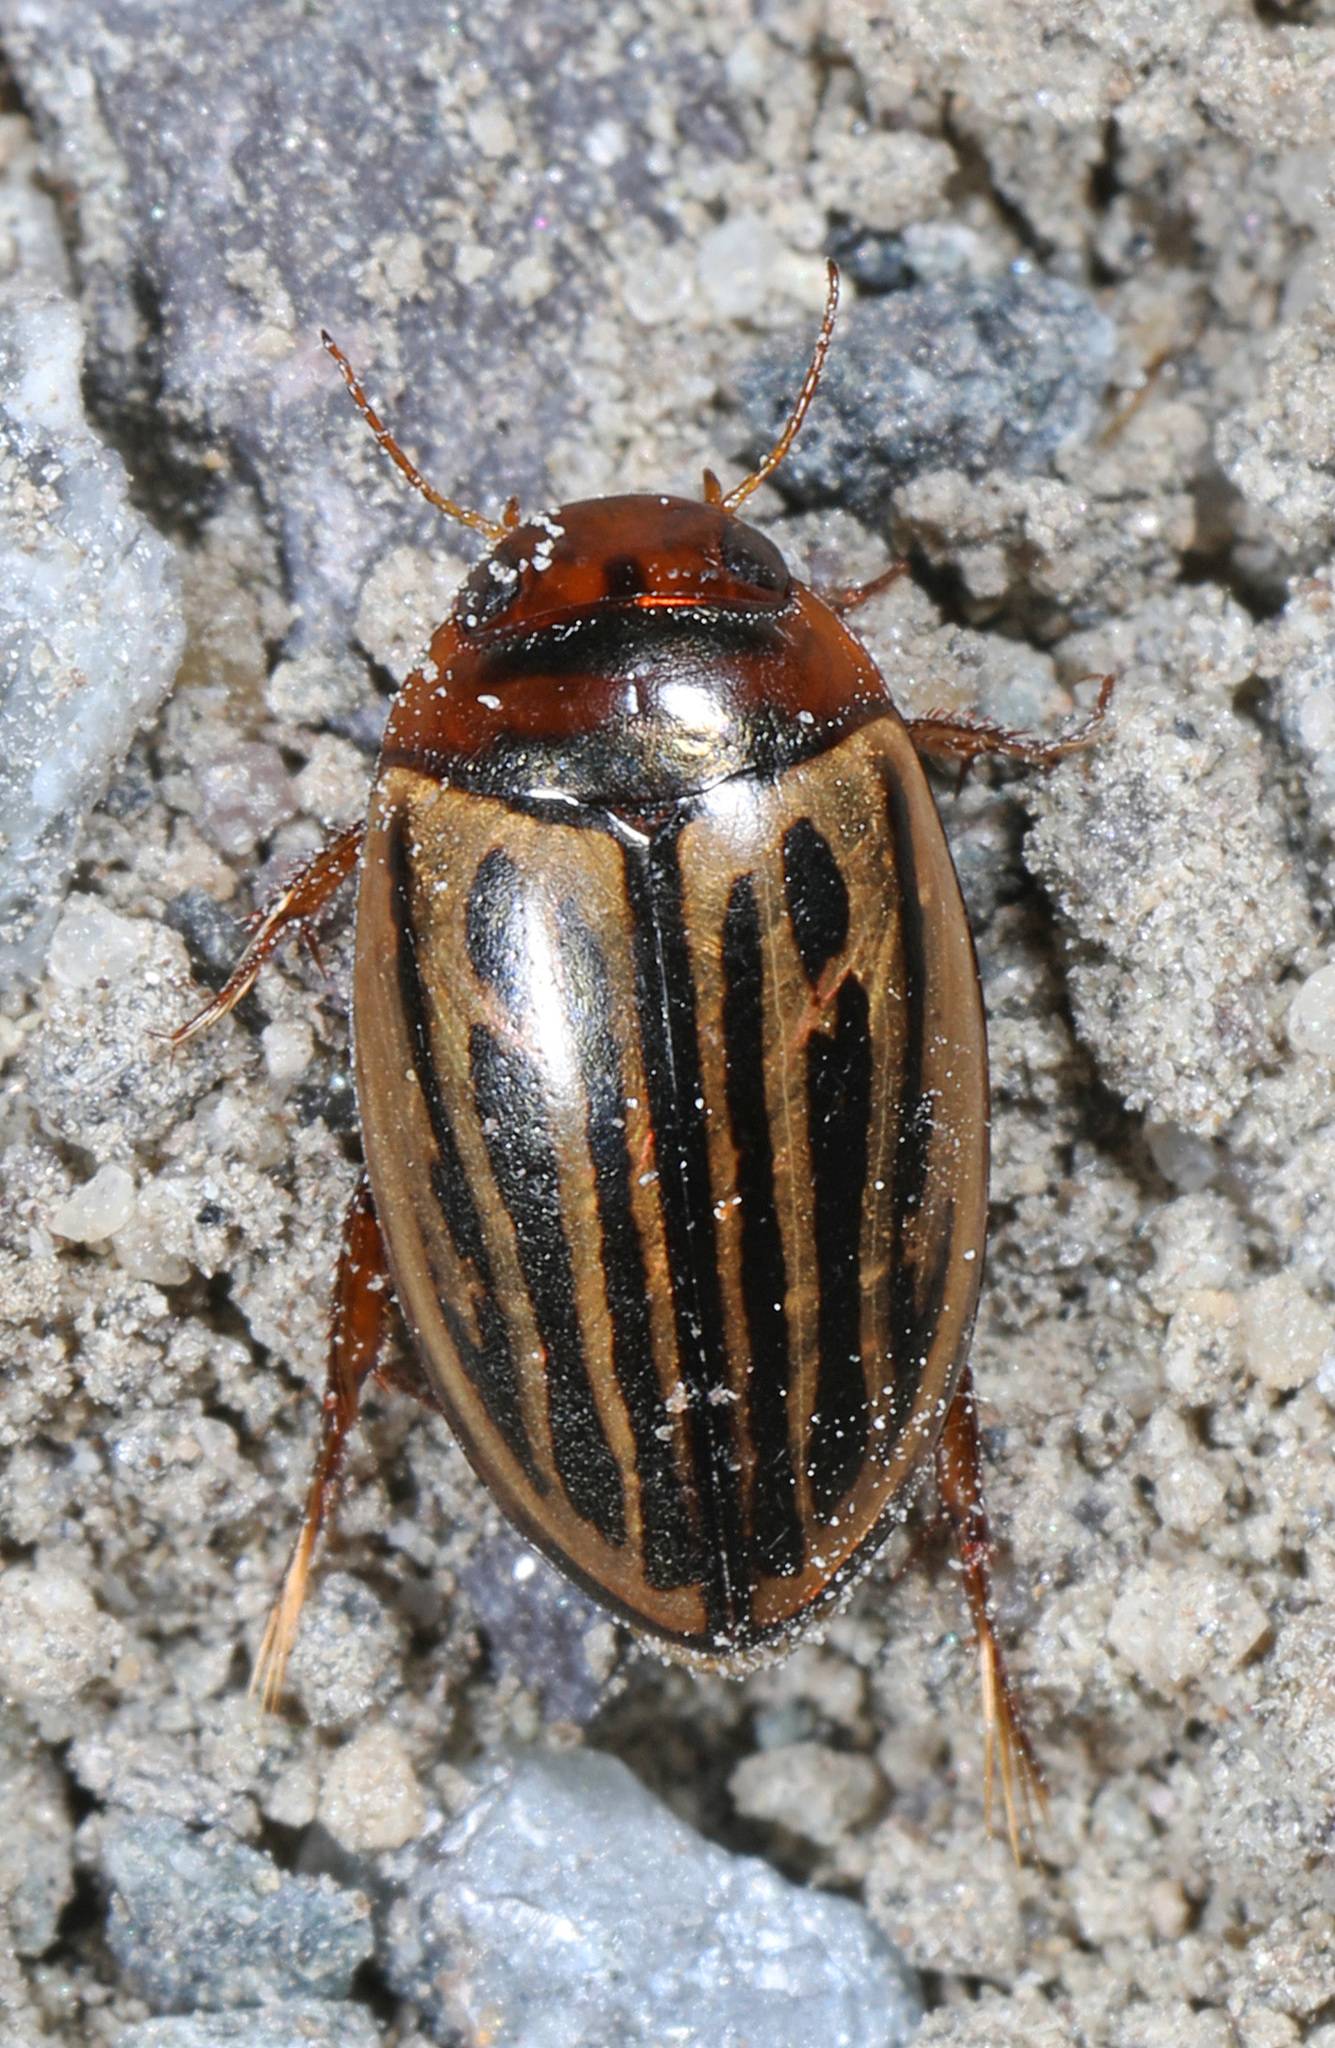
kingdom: Animalia
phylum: Arthropoda
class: Insecta
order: Coleoptera
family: Dytiscidae
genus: Agabus
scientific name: Agabus disintegratus
